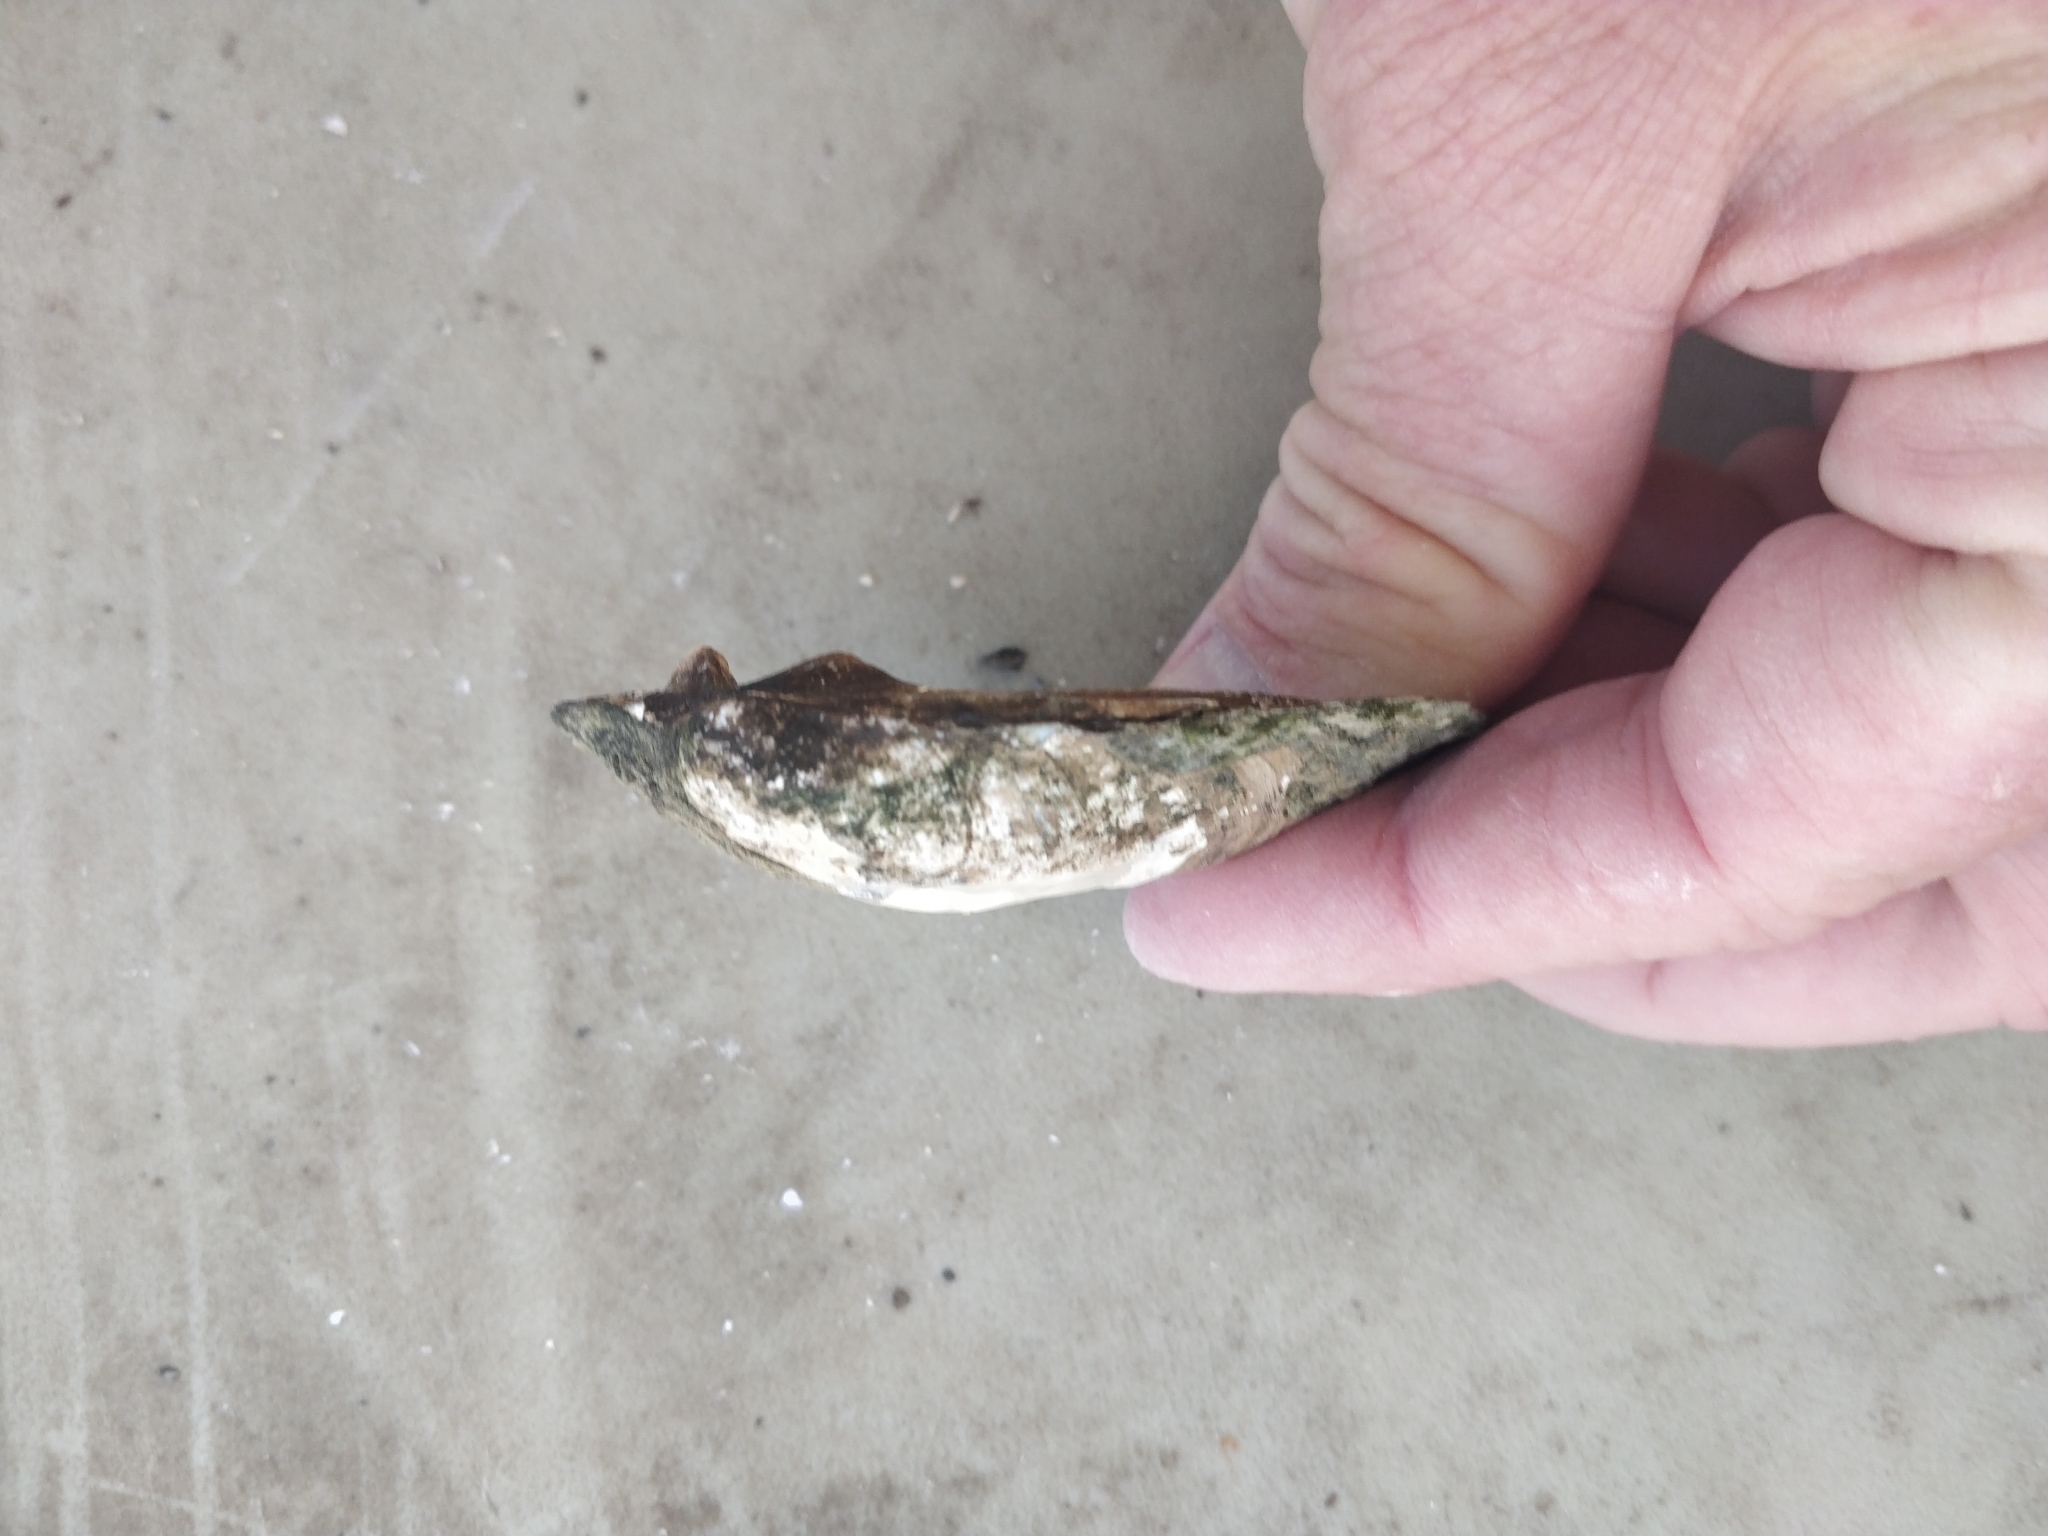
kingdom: Animalia
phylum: Mollusca
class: Bivalvia
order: Unionida
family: Unionidae
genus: Amblema
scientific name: Amblema plicata
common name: Threeridge
